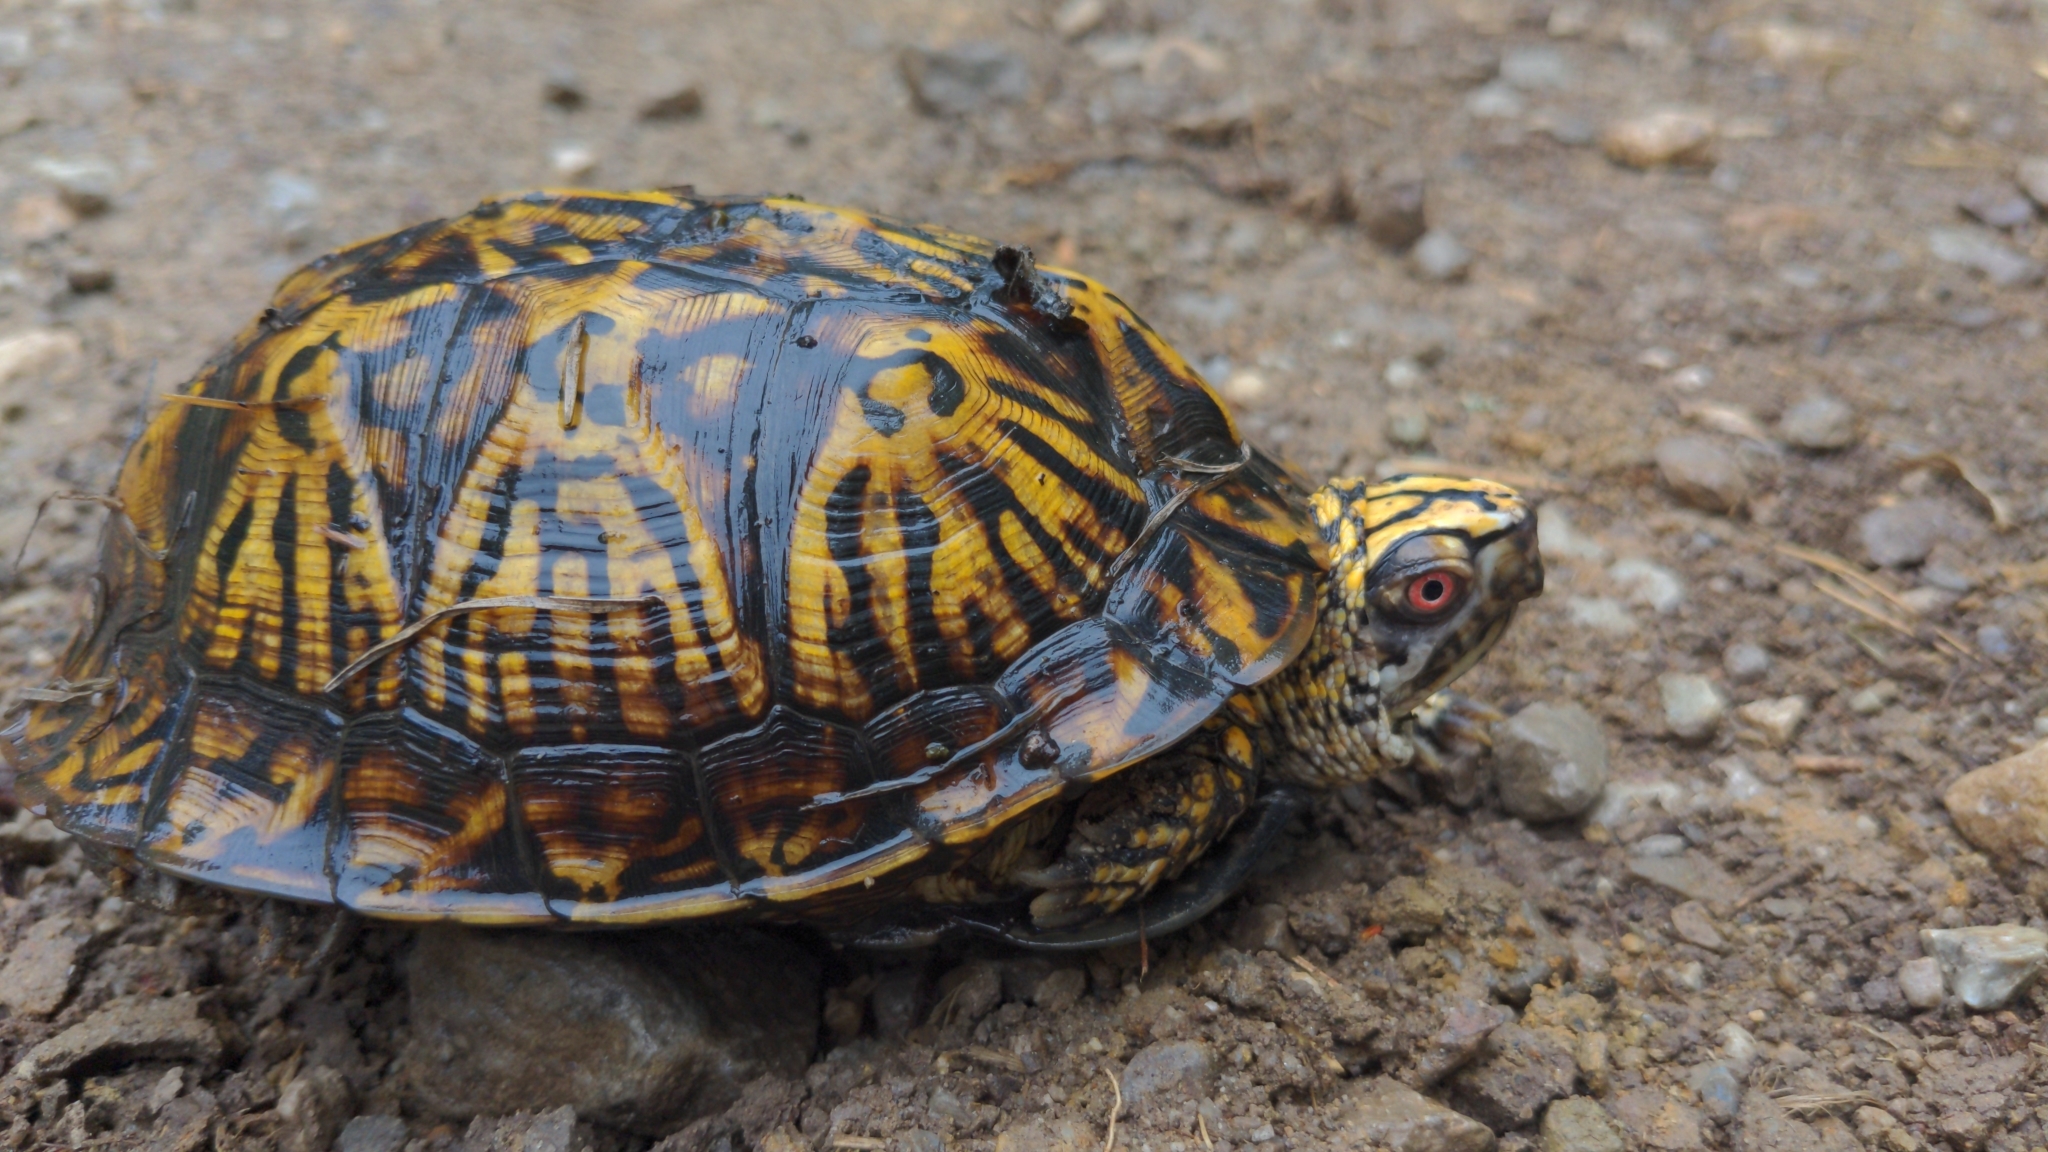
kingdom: Animalia
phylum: Chordata
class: Testudines
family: Emydidae
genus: Terrapene
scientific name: Terrapene carolina
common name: Common box turtle
